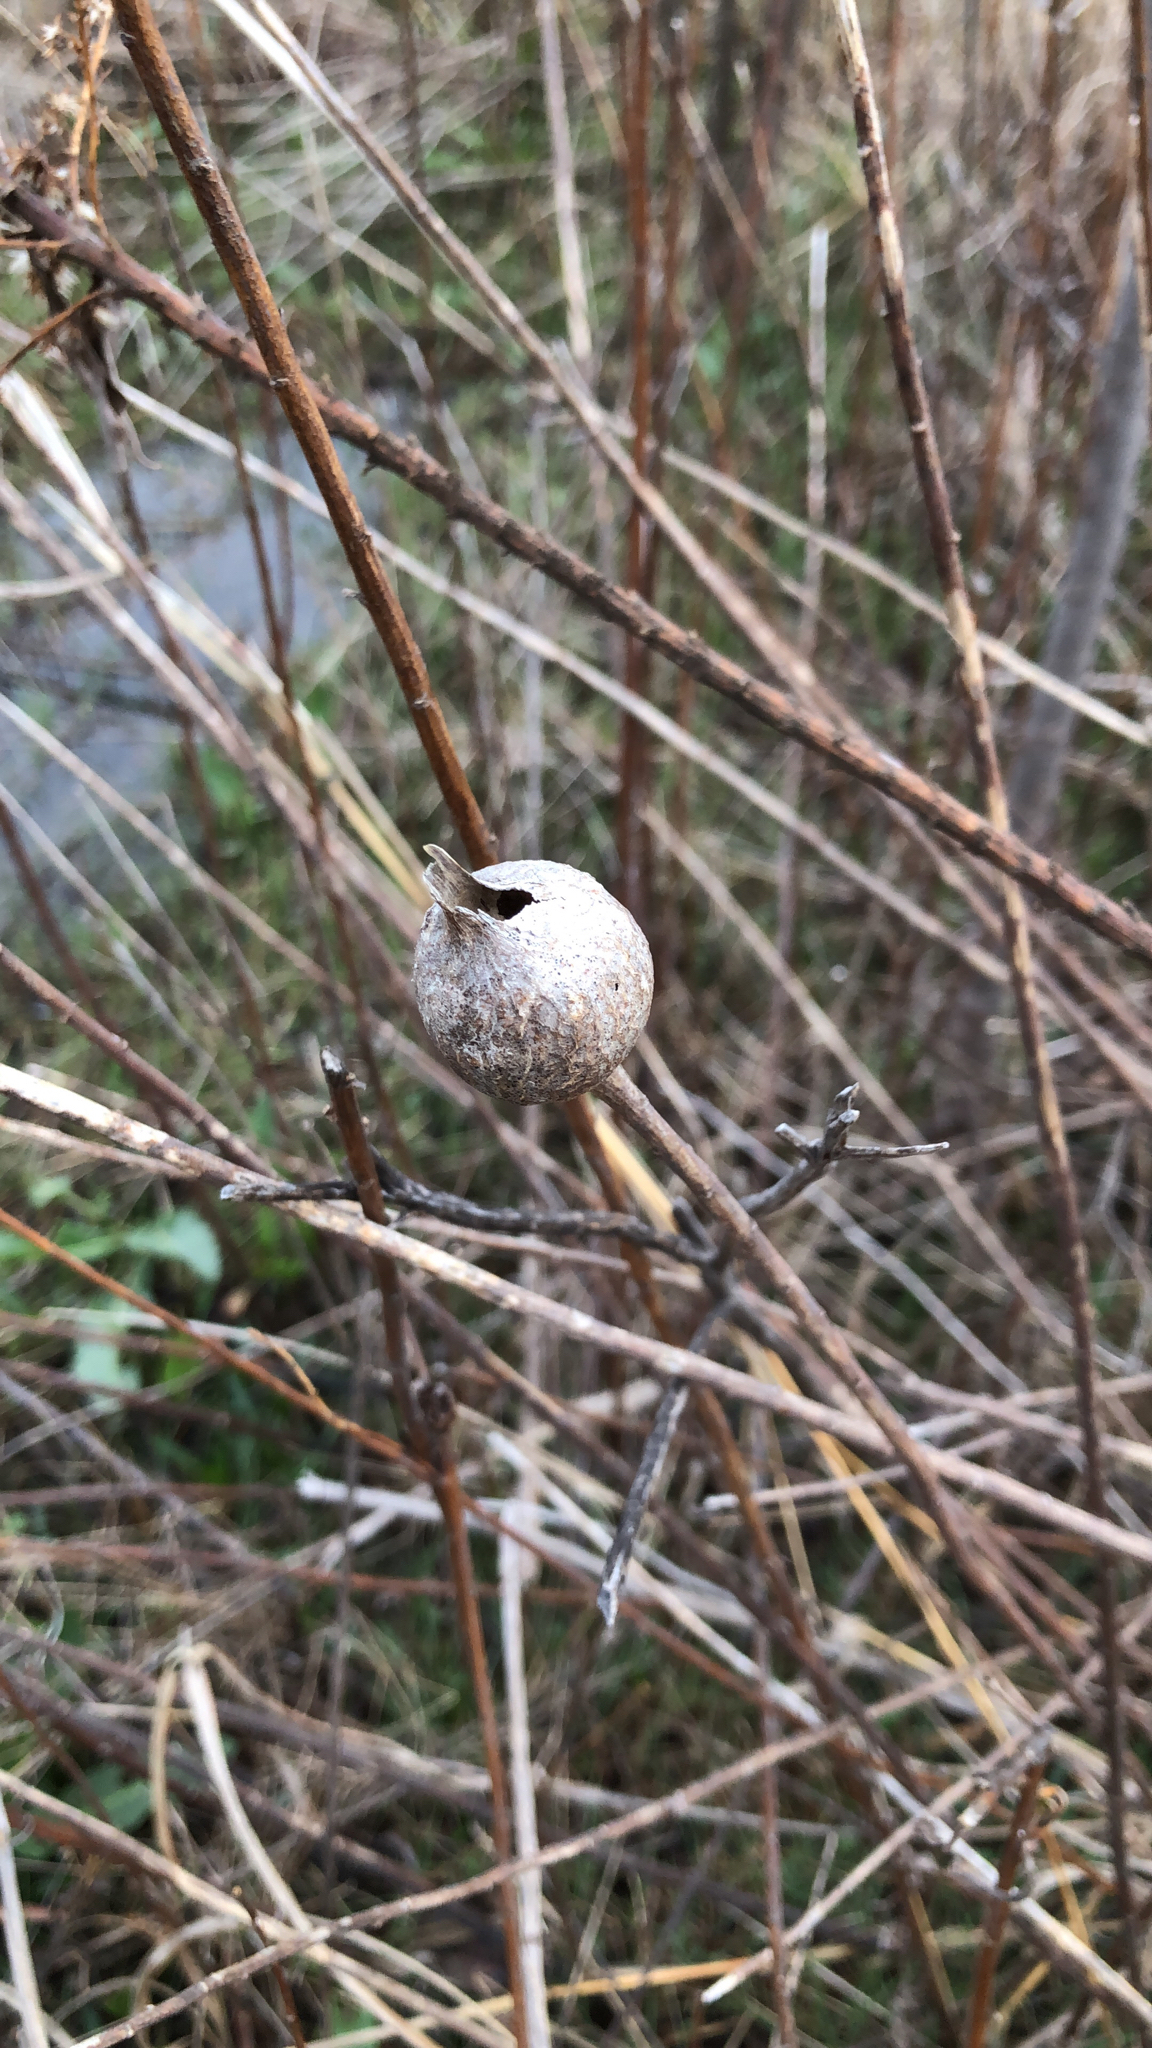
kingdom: Animalia
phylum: Arthropoda
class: Insecta
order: Diptera
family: Tephritidae
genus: Eurosta
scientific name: Eurosta solidaginis
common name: Goldenrod gall fly
